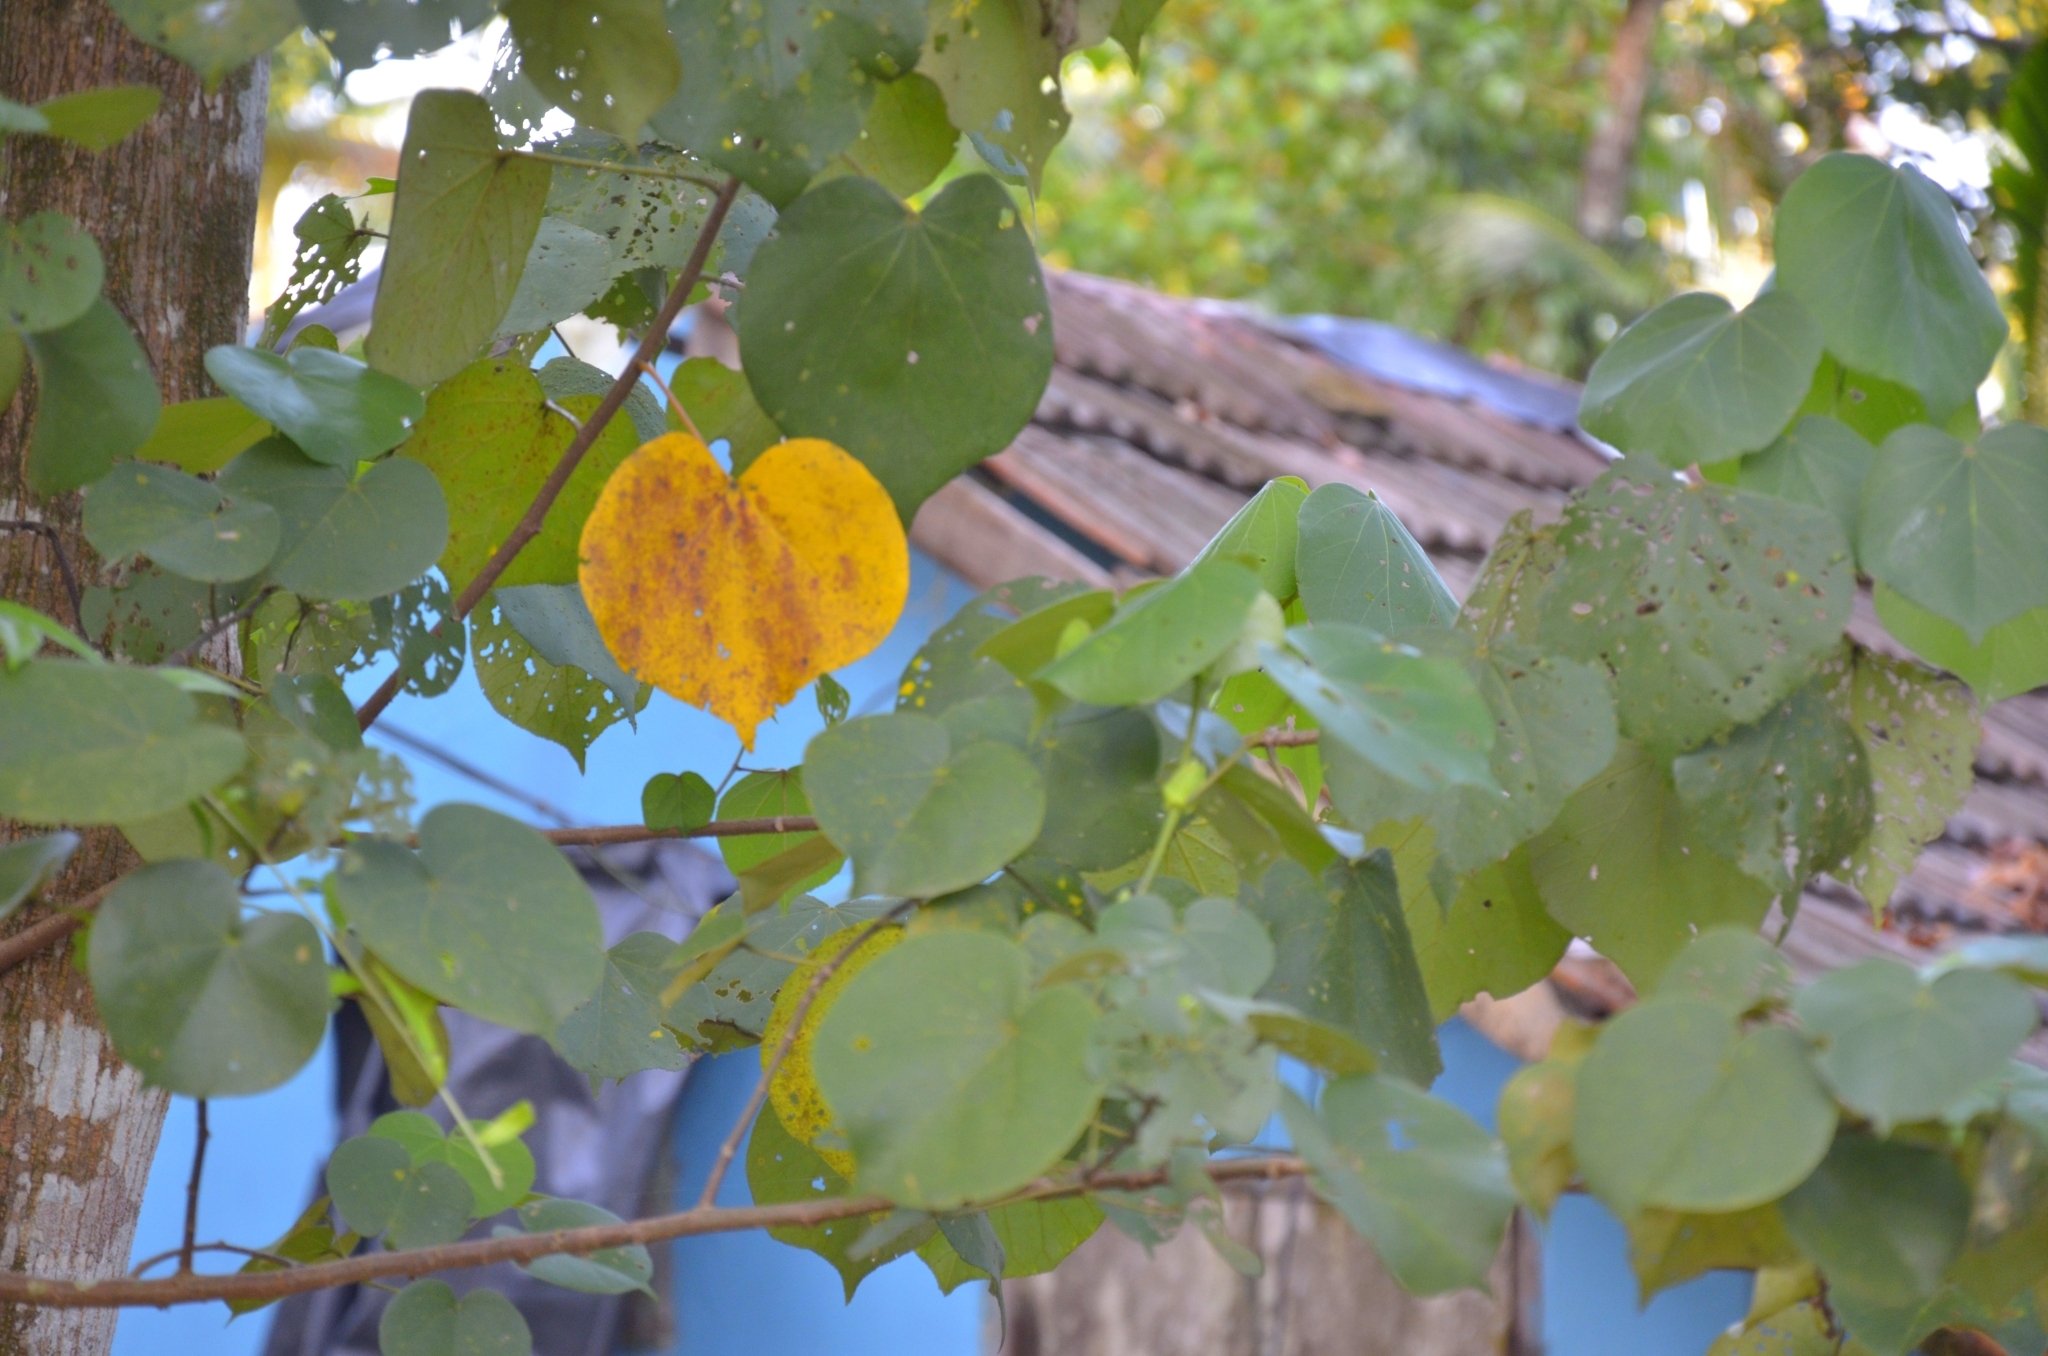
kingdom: Plantae
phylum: Tracheophyta
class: Magnoliopsida
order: Malvales
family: Malvaceae
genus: Talipariti
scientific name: Talipariti tiliaceum
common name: Sea hibiscus
